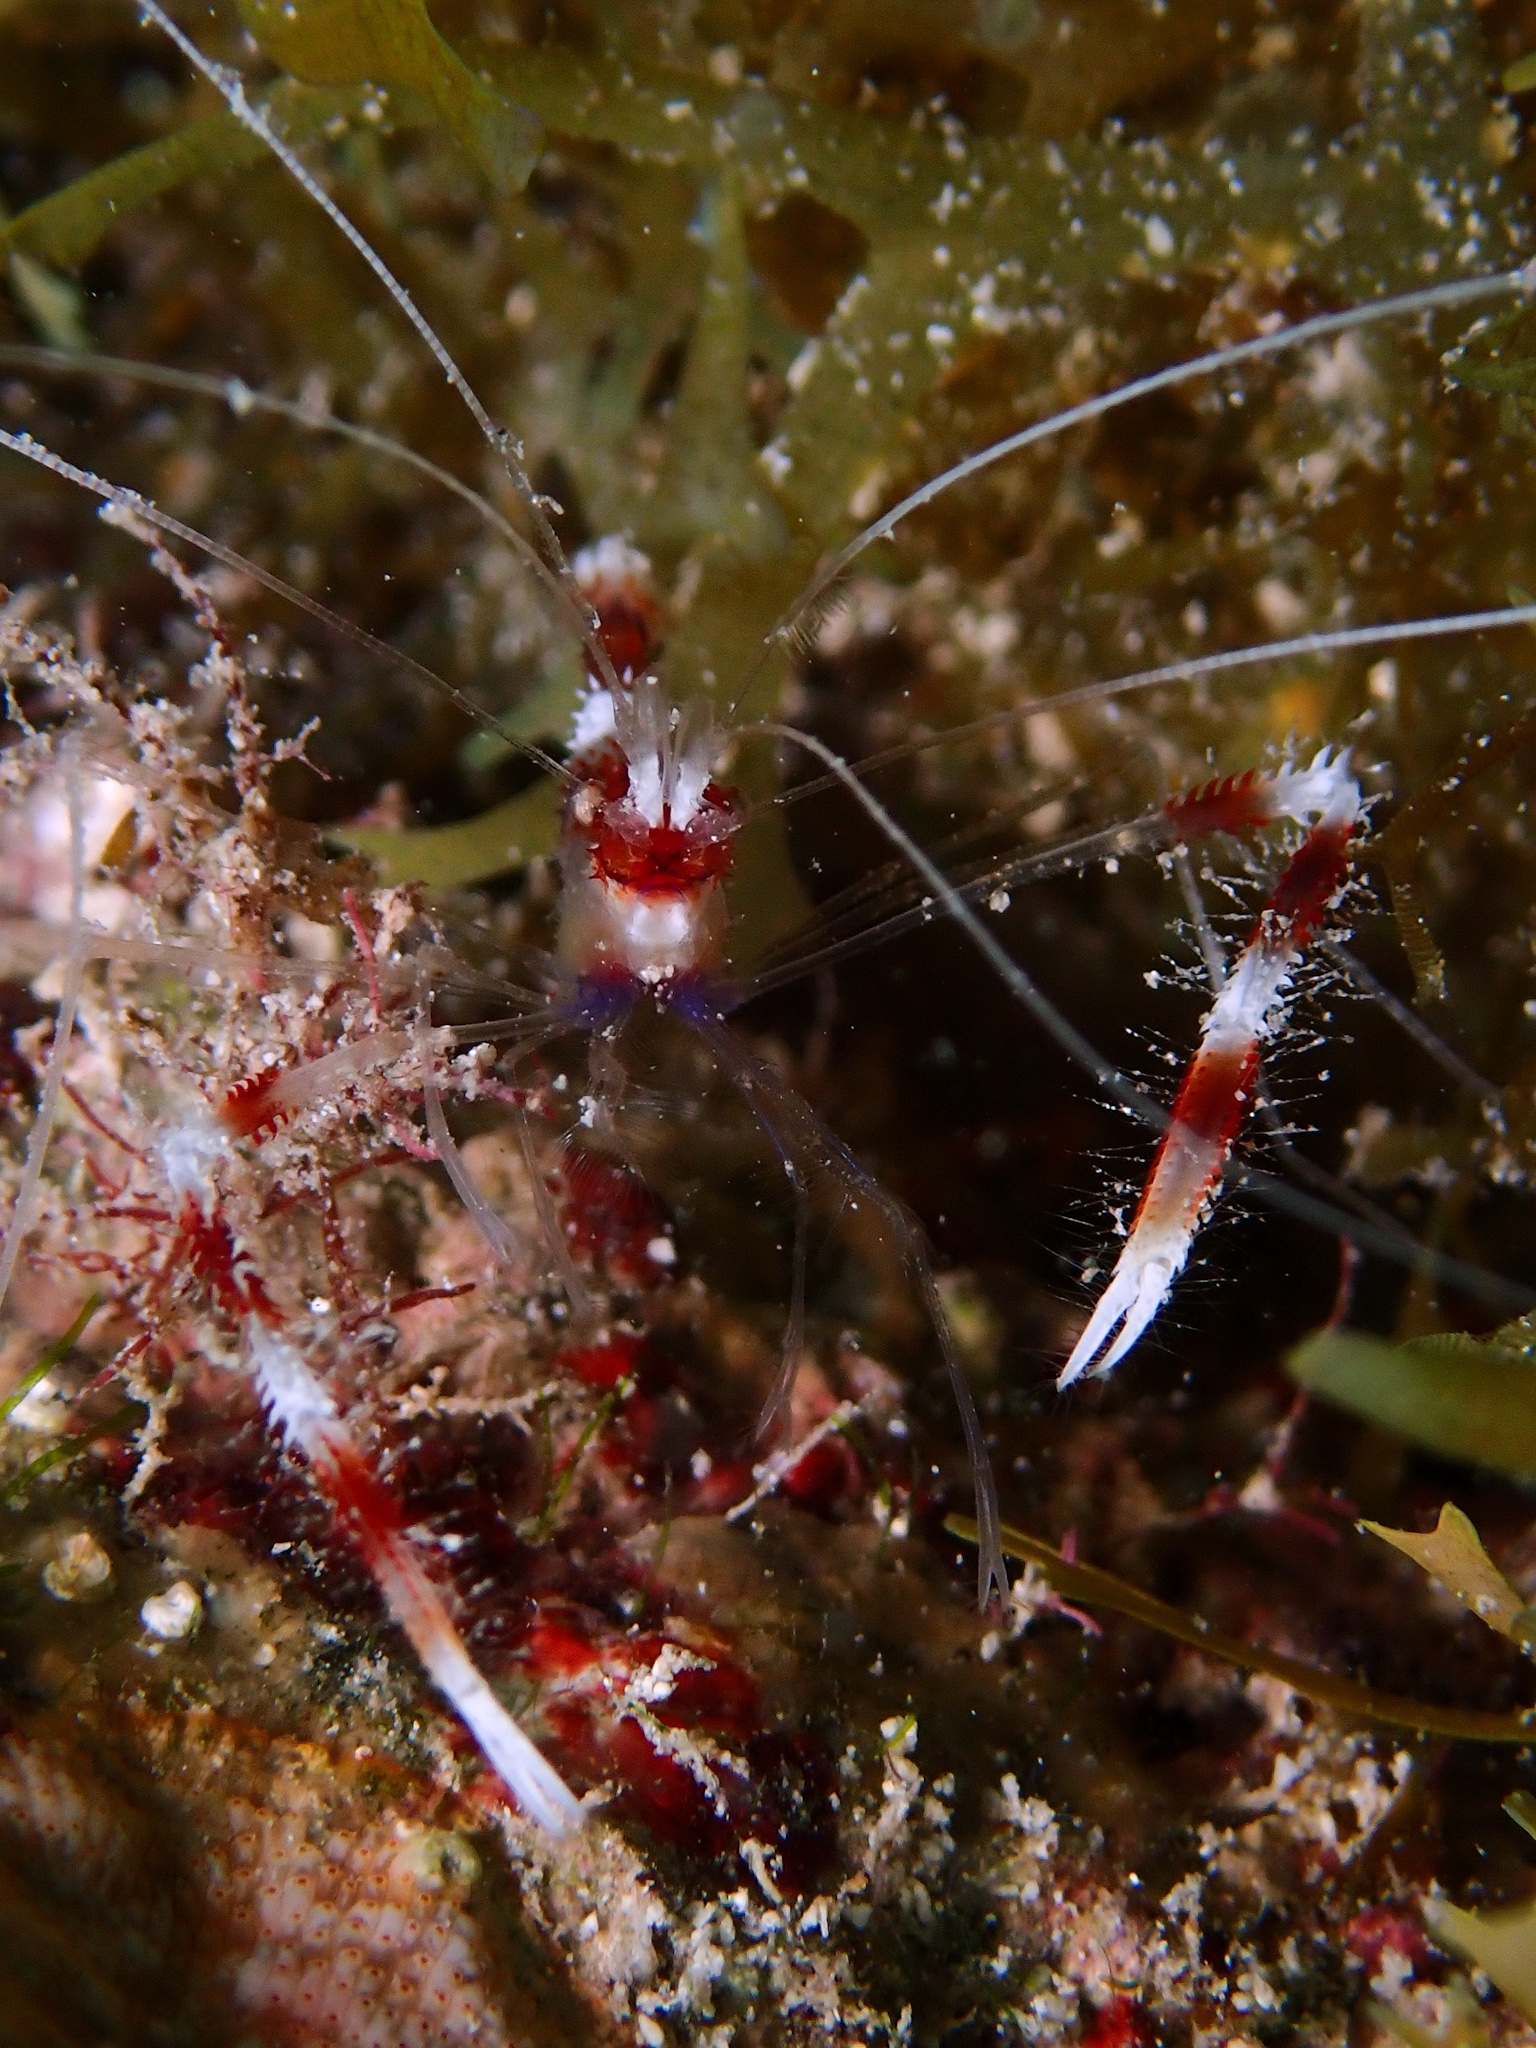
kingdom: Animalia
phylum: Arthropoda
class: Malacostraca
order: Decapoda
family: Stenopodidae
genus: Stenopus
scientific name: Stenopus hispidus
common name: Banded coral shrimp
